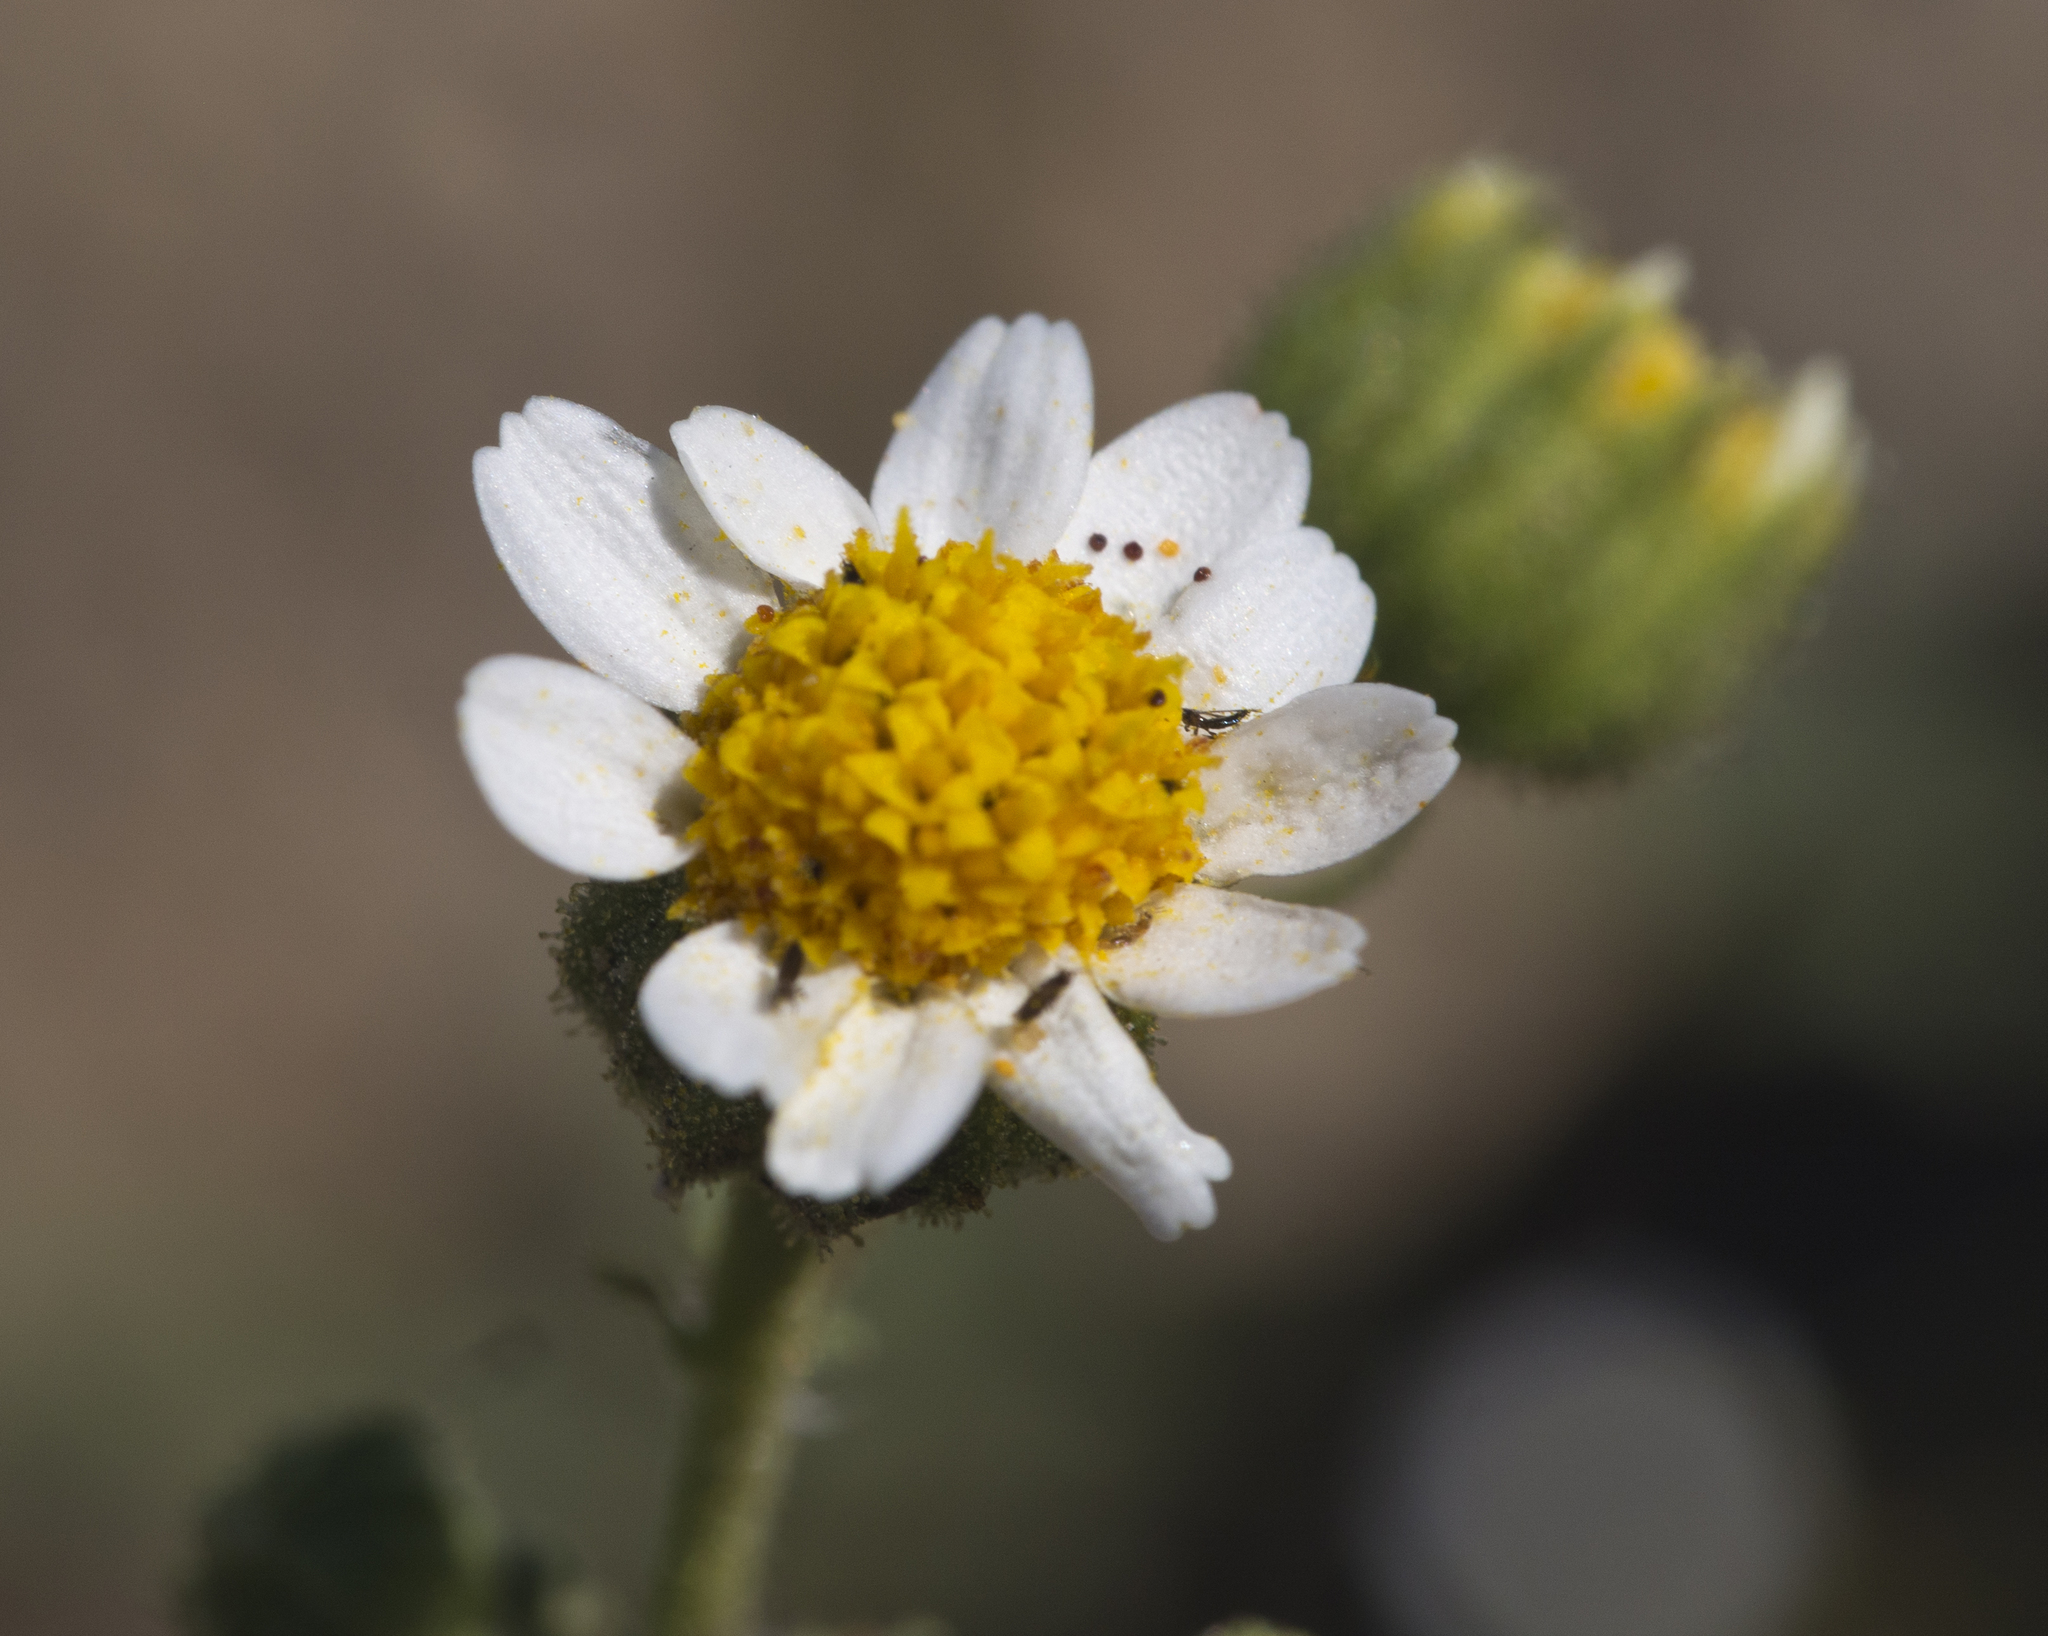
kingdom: Plantae
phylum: Tracheophyta
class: Magnoliopsida
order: Asterales
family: Asteraceae
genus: Laphamia
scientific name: Laphamia emoryi
